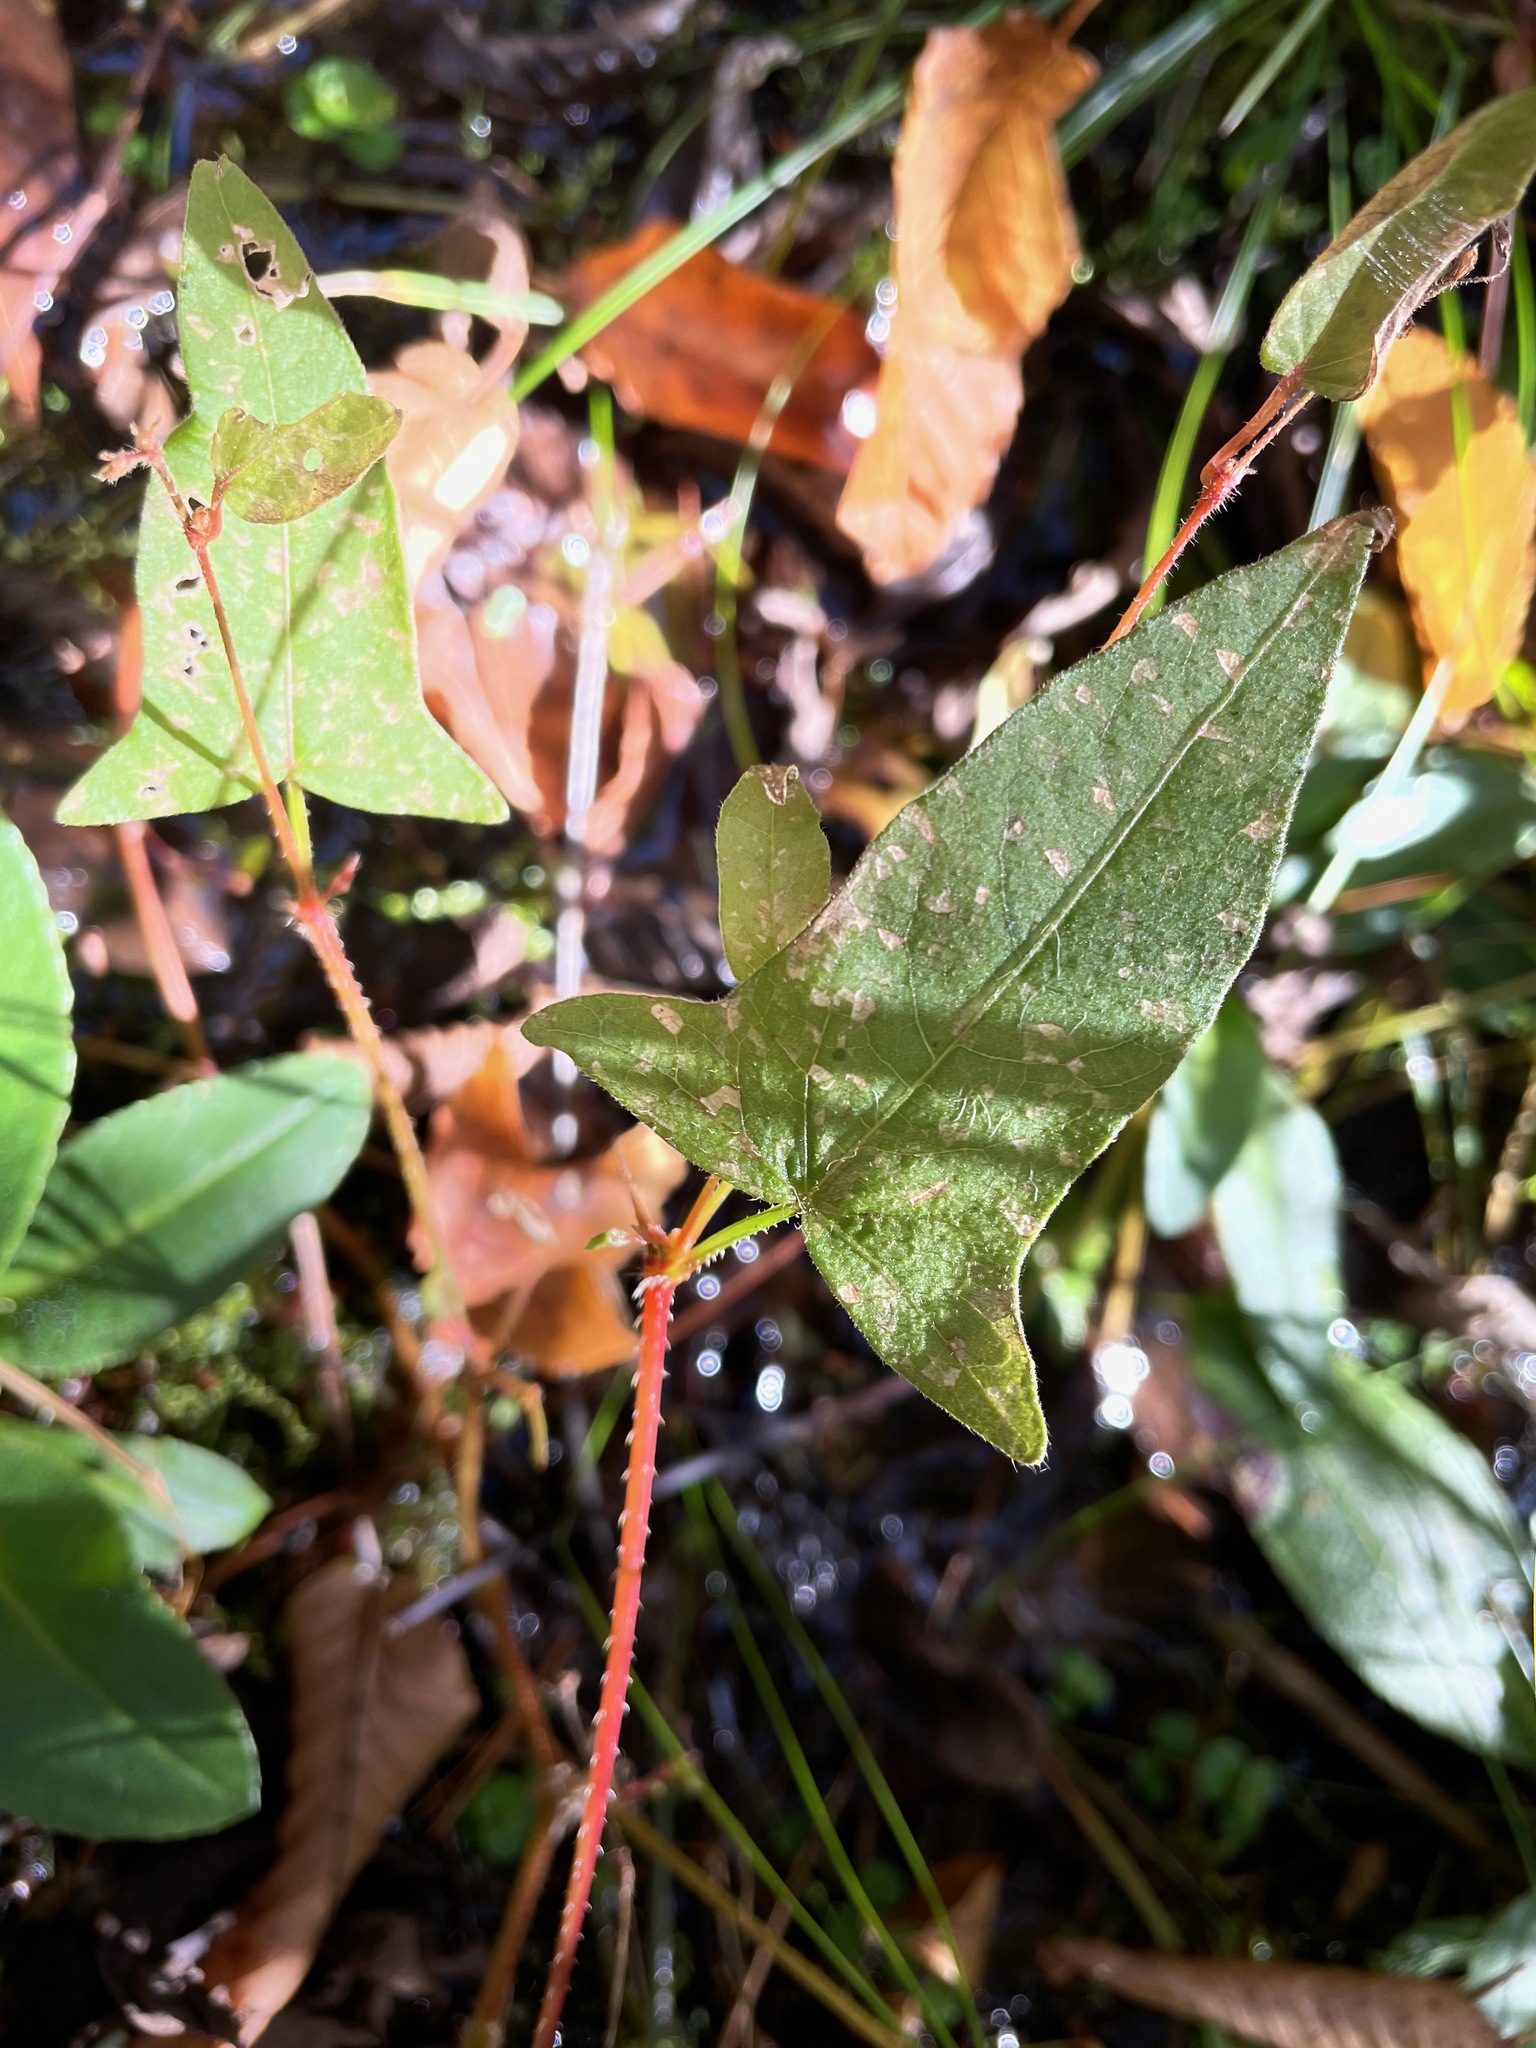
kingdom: Plantae
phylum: Tracheophyta
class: Magnoliopsida
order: Caryophyllales
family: Polygonaceae
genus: Persicaria
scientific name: Persicaria arifolia
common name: Halberd-leaved tear-thumb
